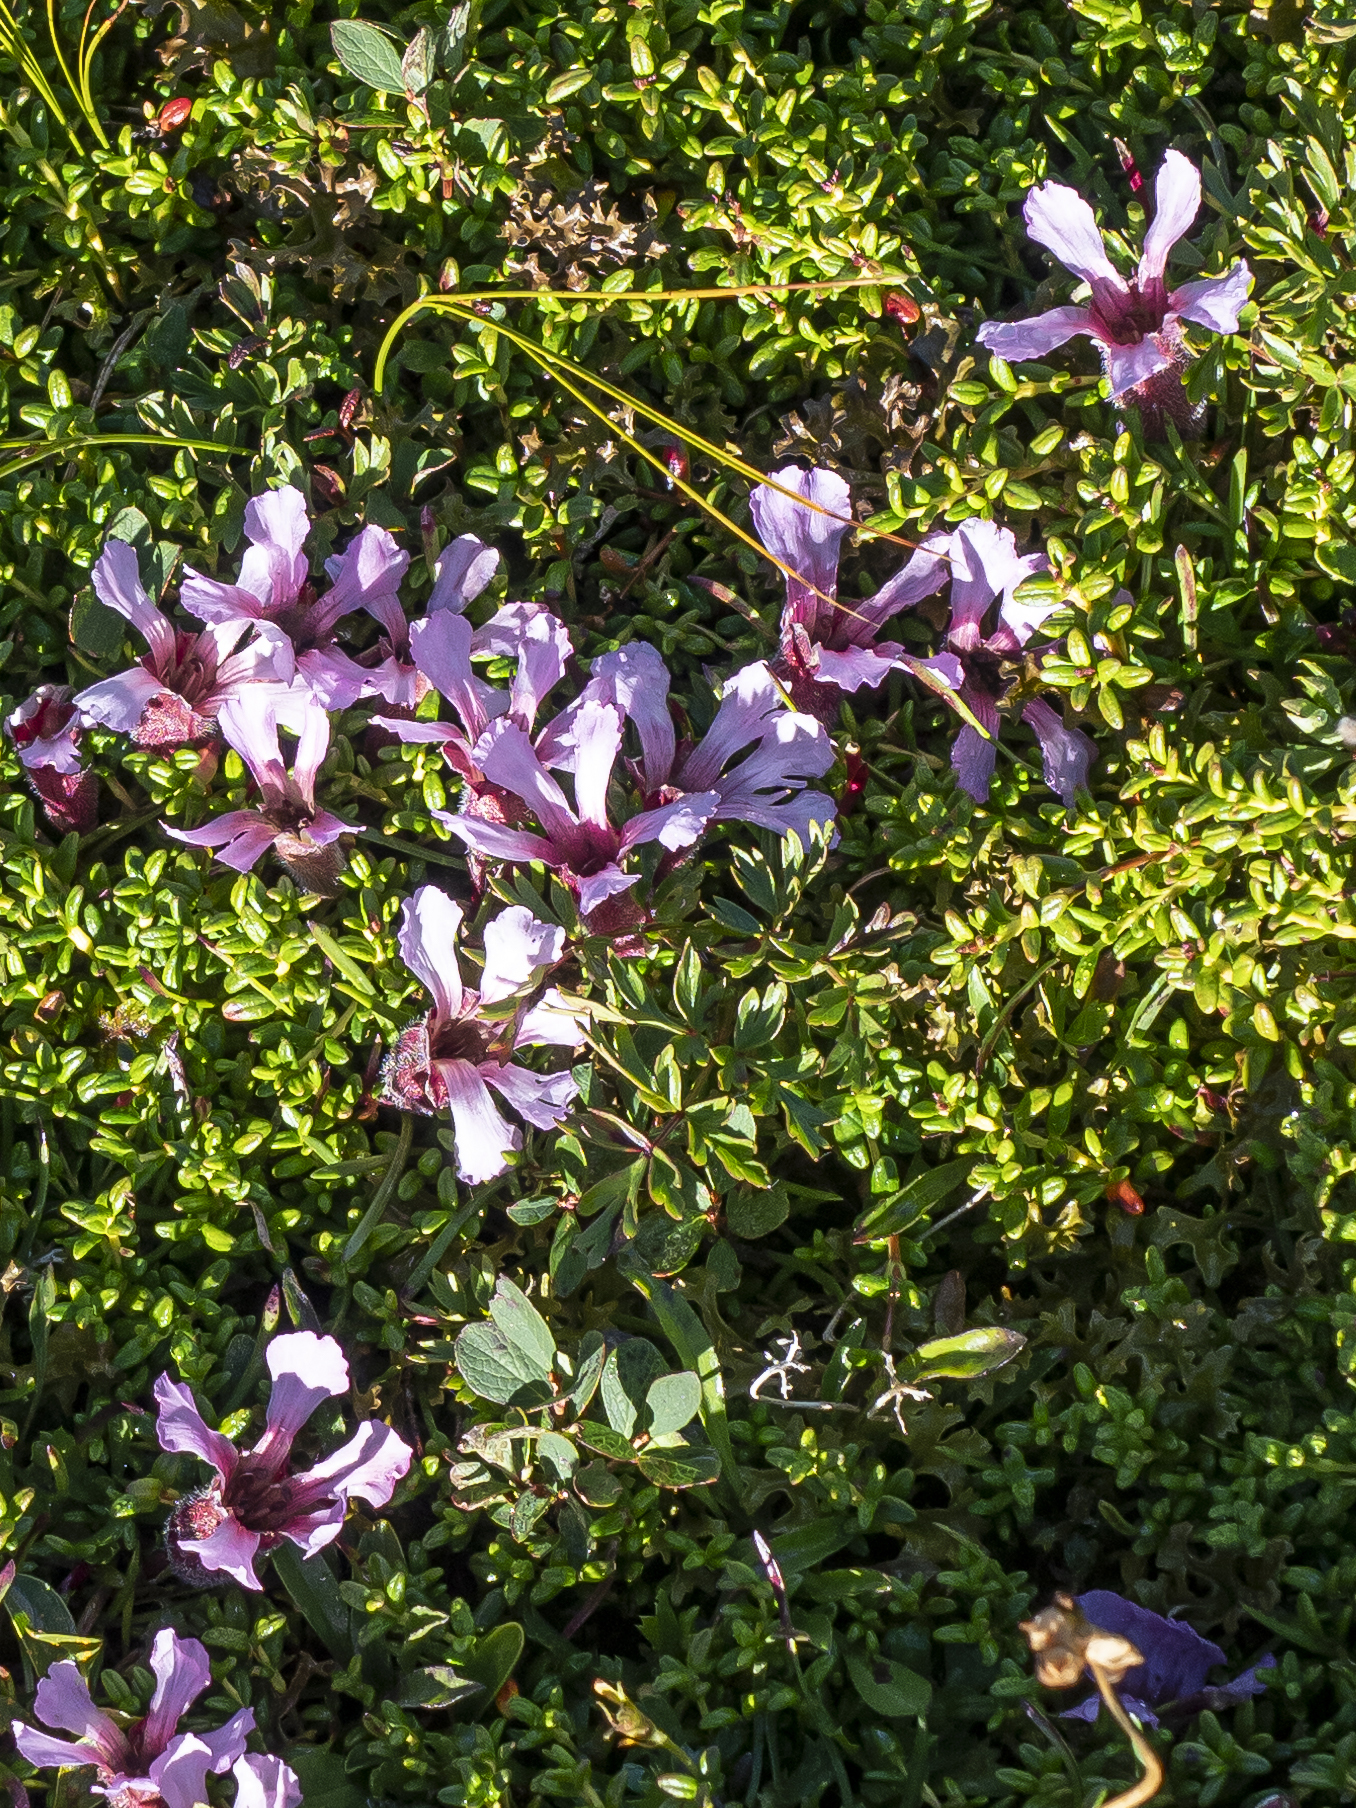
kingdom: Plantae
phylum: Tracheophyta
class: Magnoliopsida
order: Caryophyllales
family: Caryophyllaceae
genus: Saponaria
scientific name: Saponaria pumila
